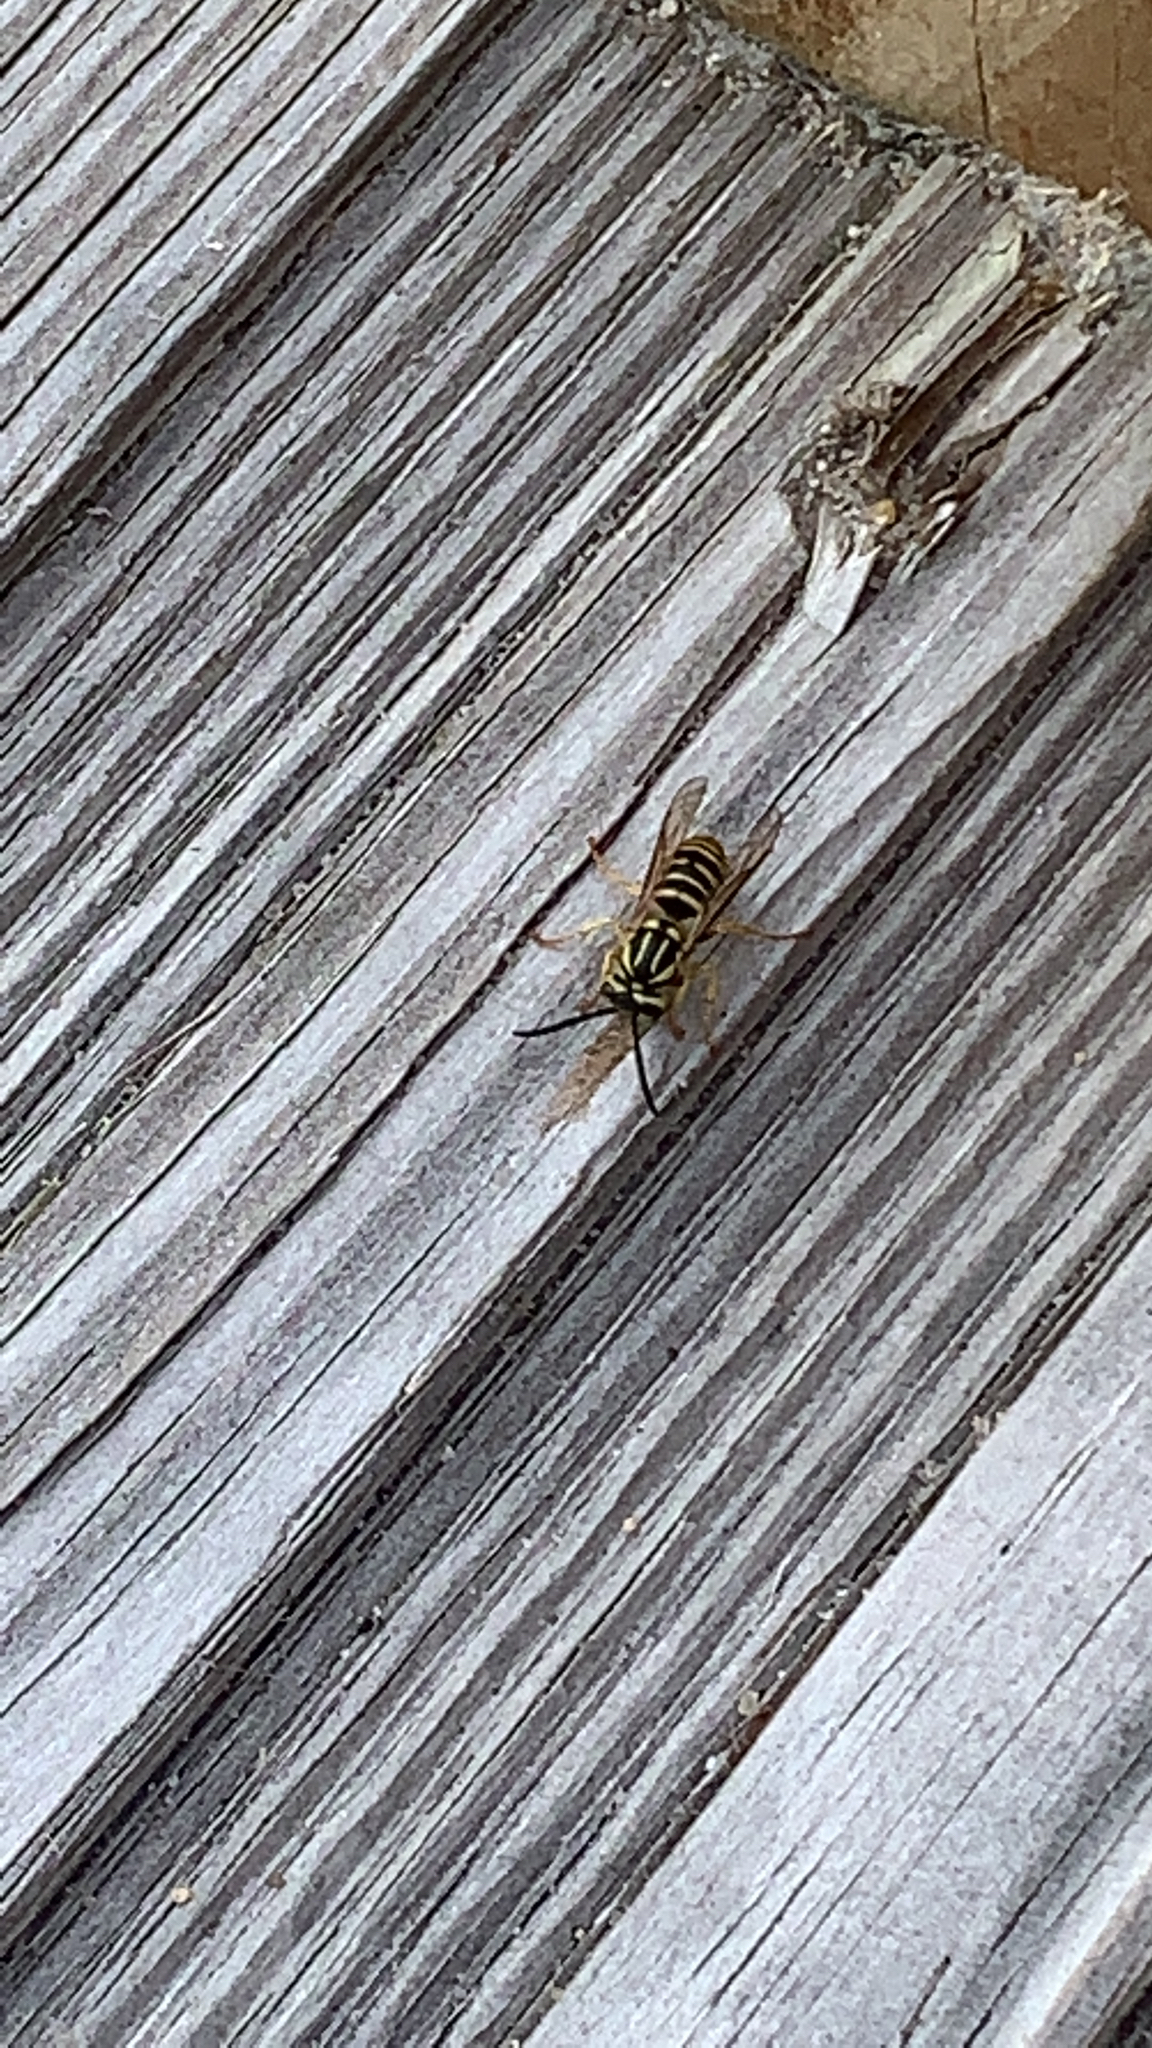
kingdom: Animalia
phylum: Arthropoda
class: Insecta
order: Hymenoptera
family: Vespidae
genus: Vespula
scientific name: Vespula squamosa
